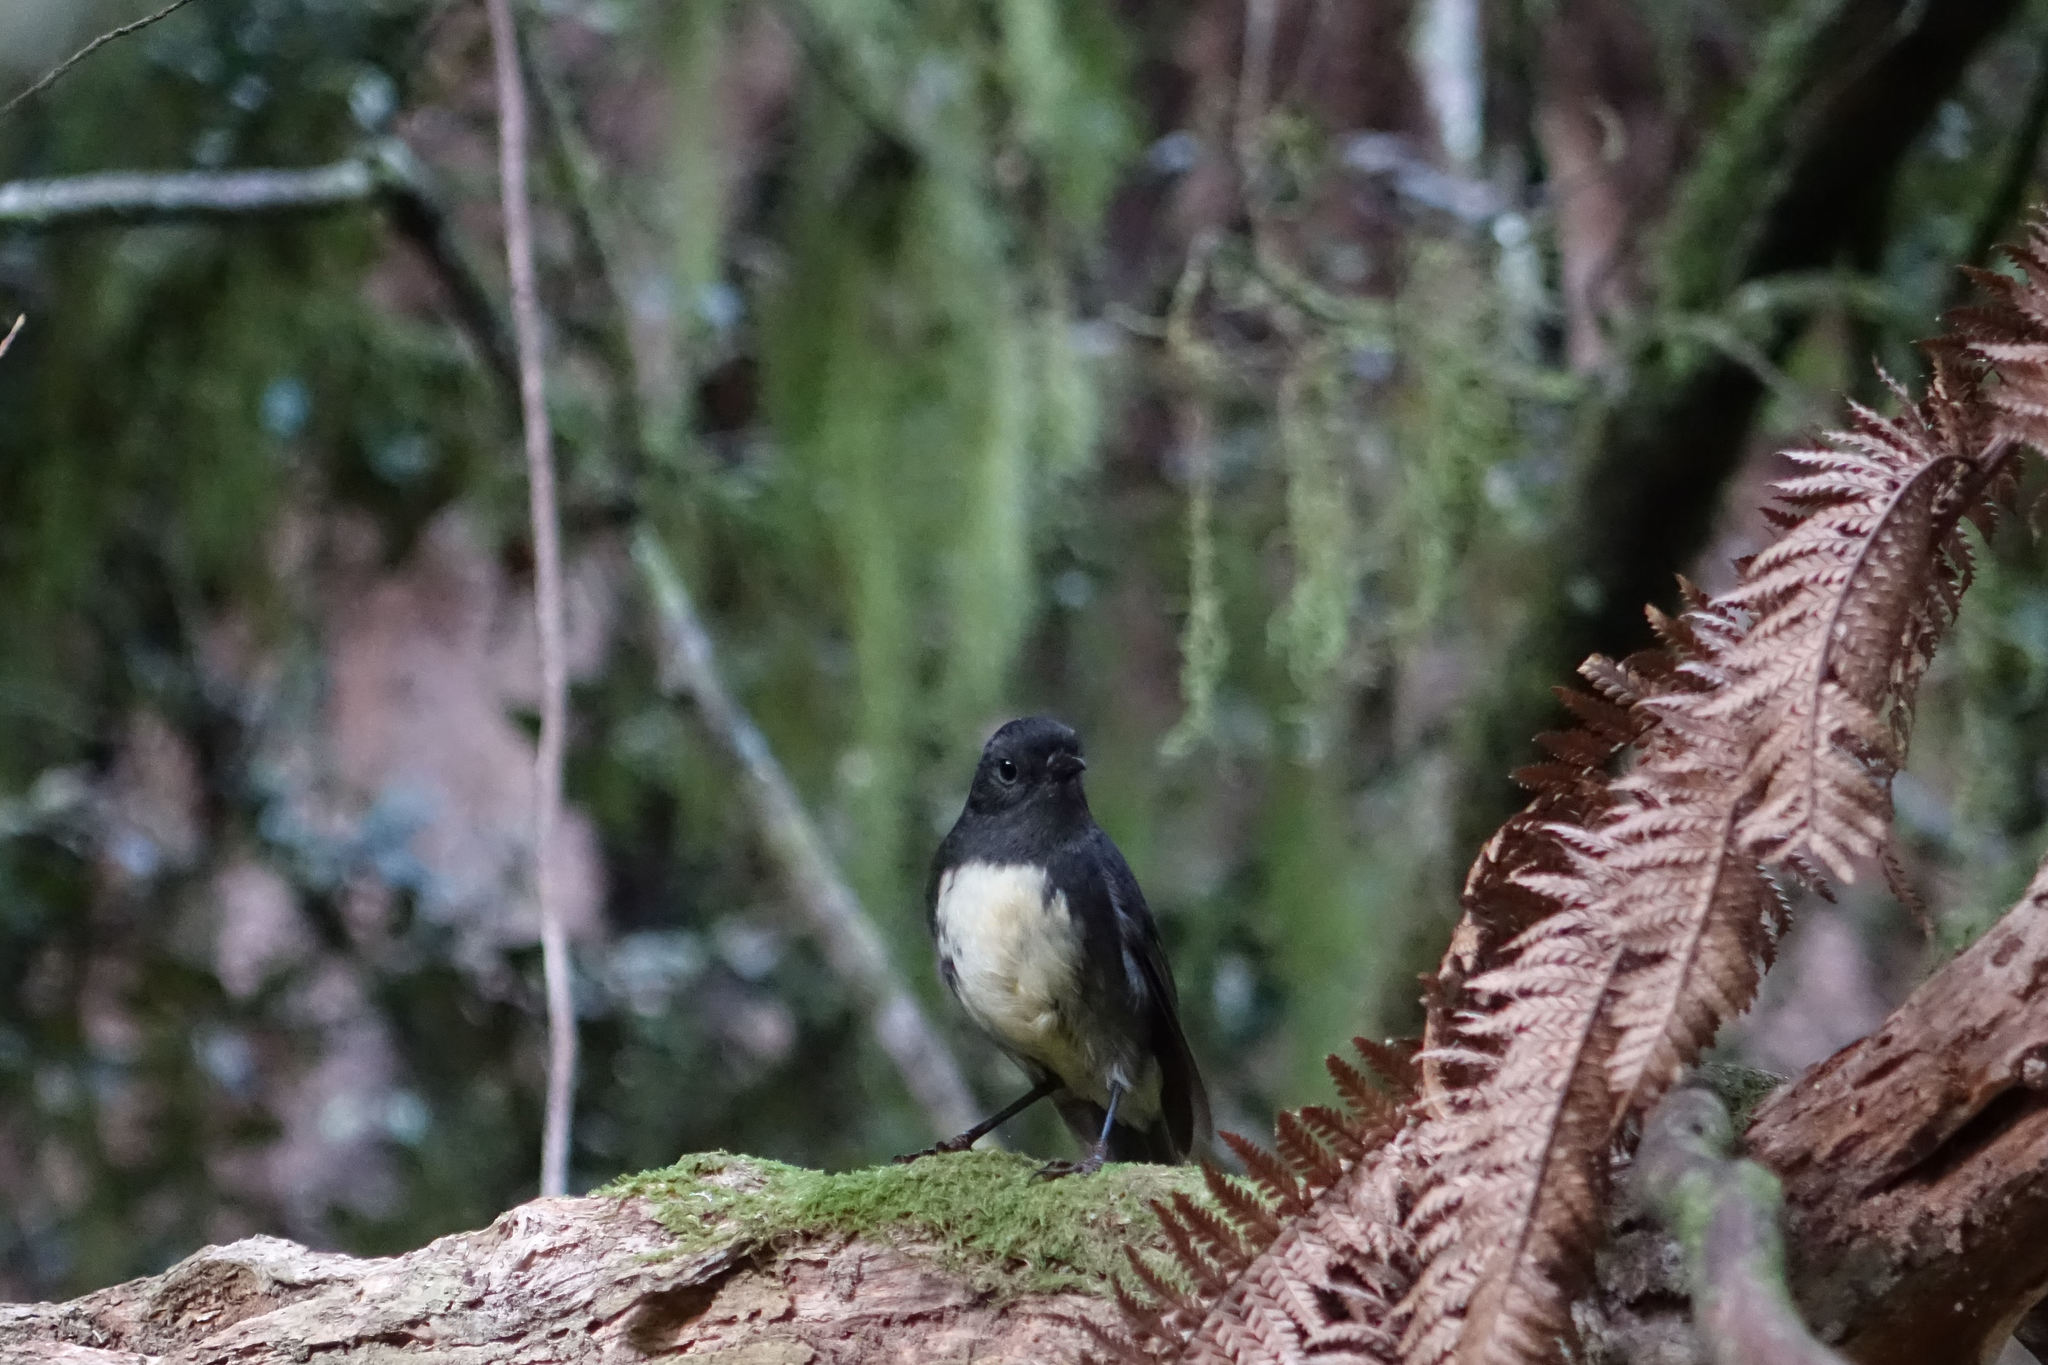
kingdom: Animalia
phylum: Chordata
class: Aves
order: Passeriformes
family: Petroicidae
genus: Petroica
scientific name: Petroica australis
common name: New zealand robin
